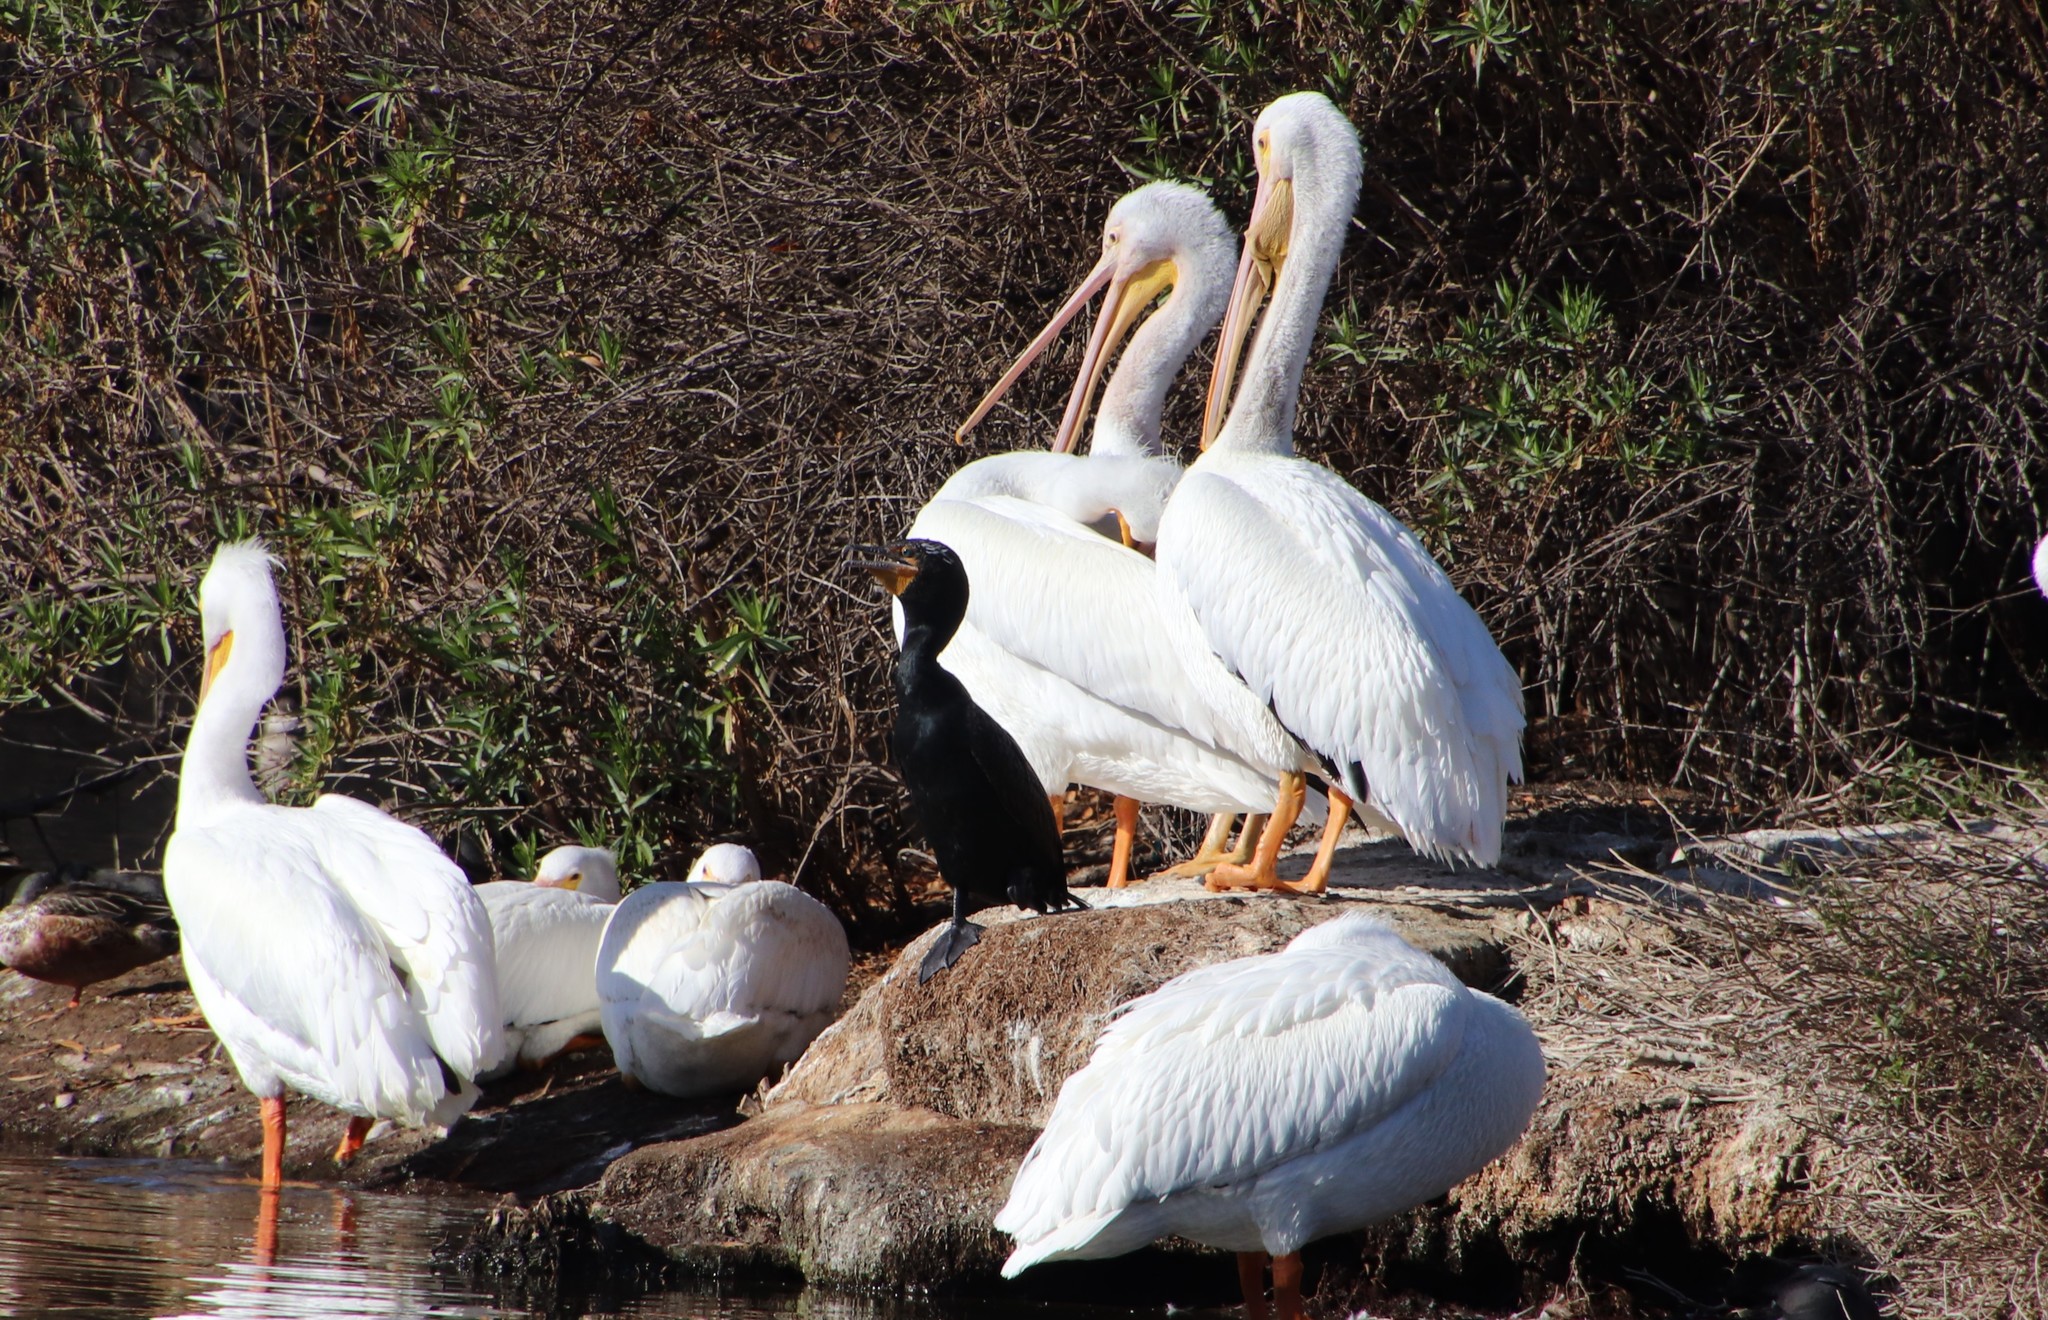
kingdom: Animalia
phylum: Chordata
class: Aves
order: Pelecaniformes
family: Pelecanidae
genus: Pelecanus
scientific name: Pelecanus erythrorhynchos
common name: American white pelican
